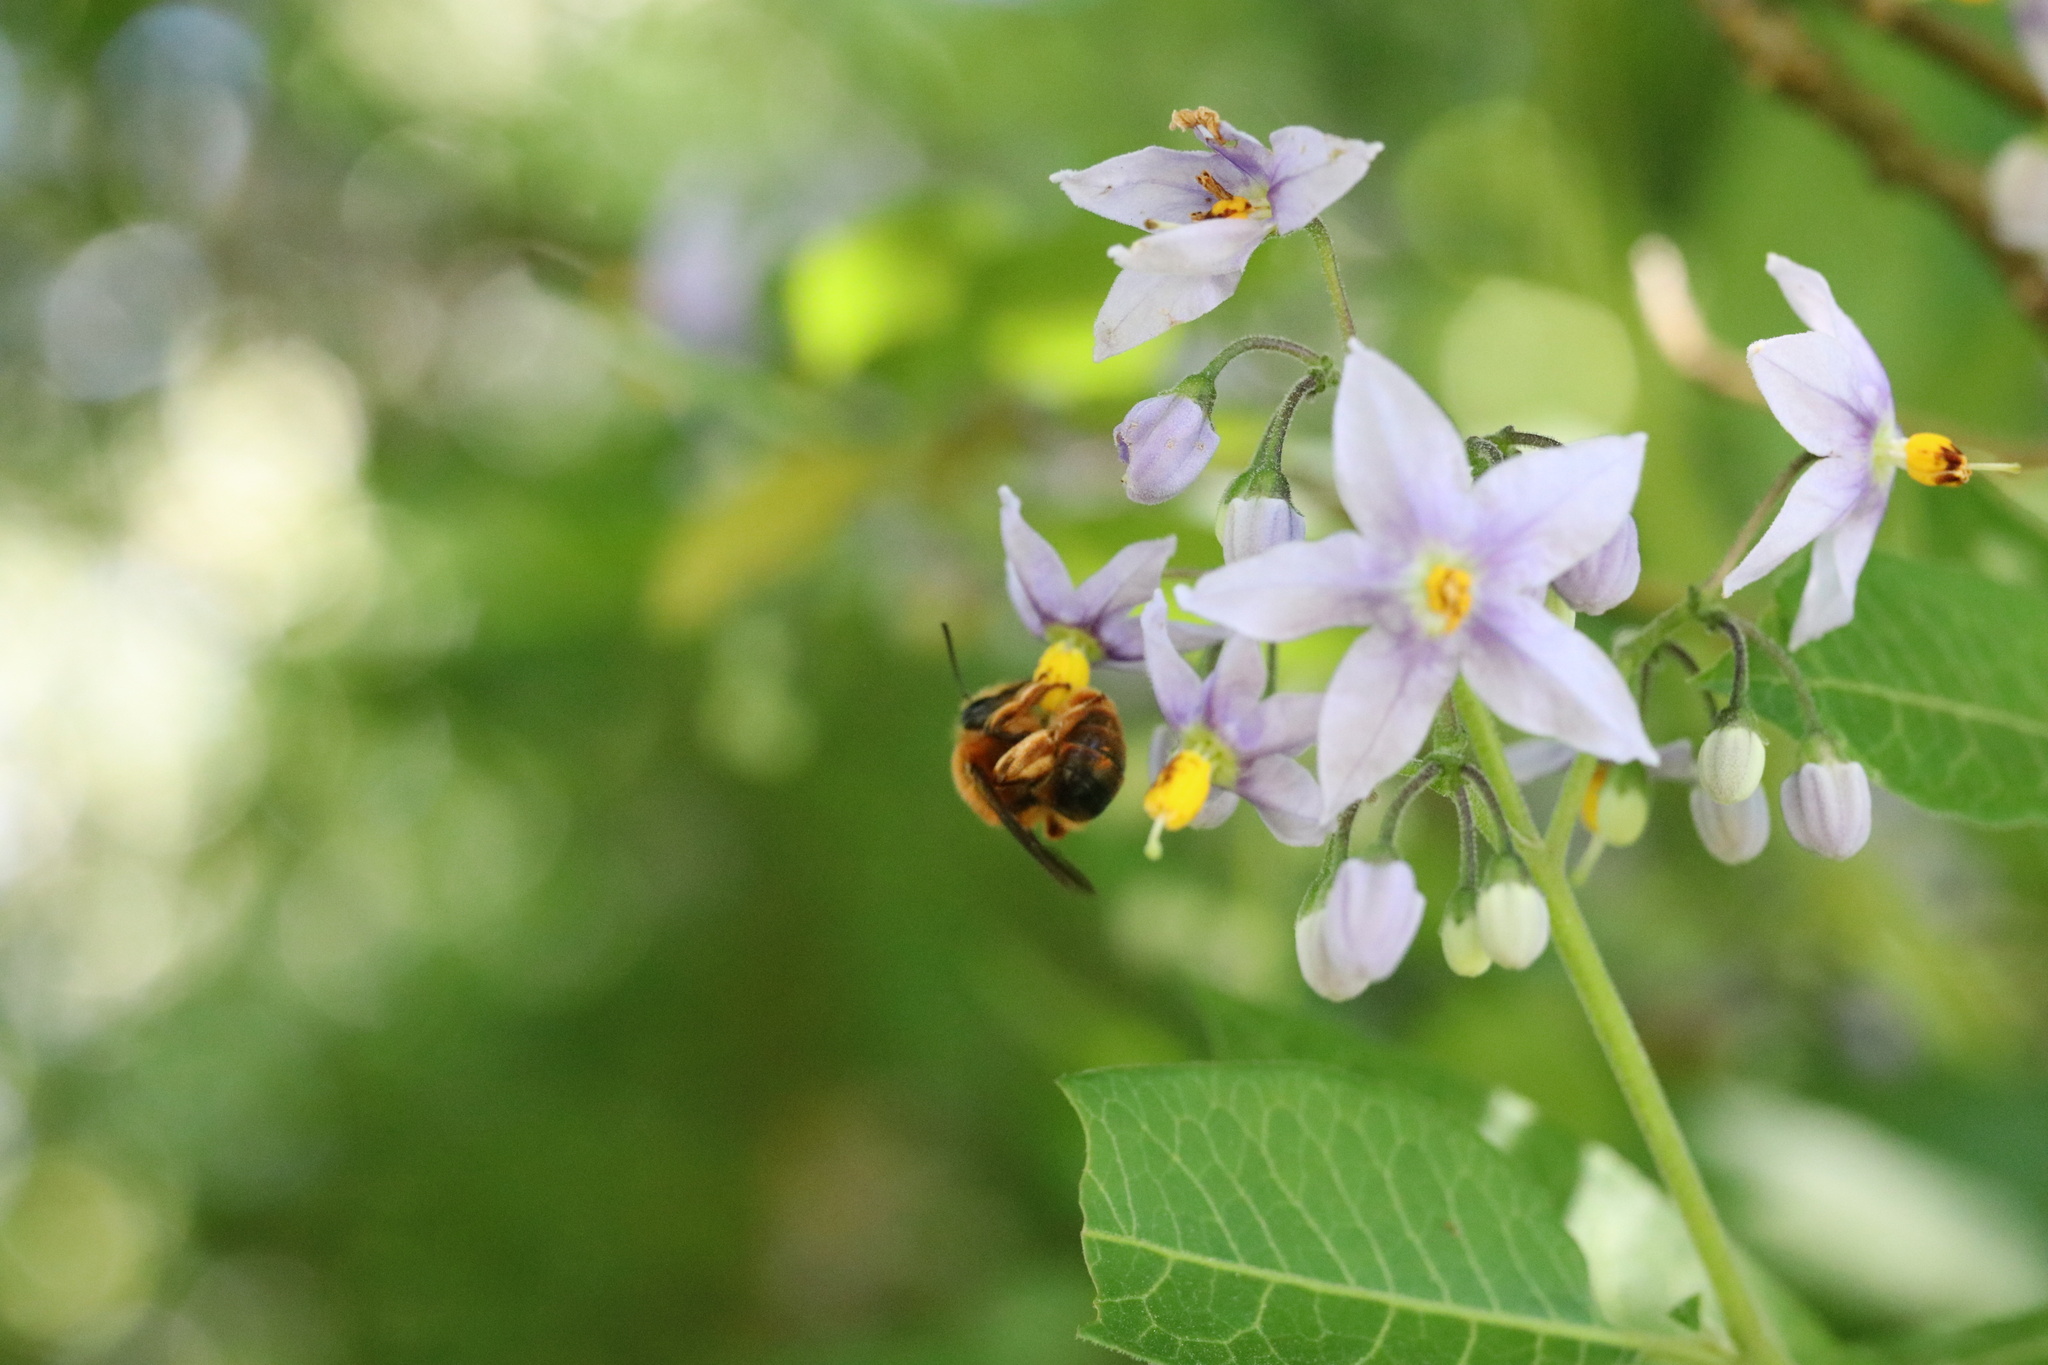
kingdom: Animalia
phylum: Arthropoda
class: Insecta
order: Hymenoptera
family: Colletidae
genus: Cadeguala
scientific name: Cadeguala occidentalis
